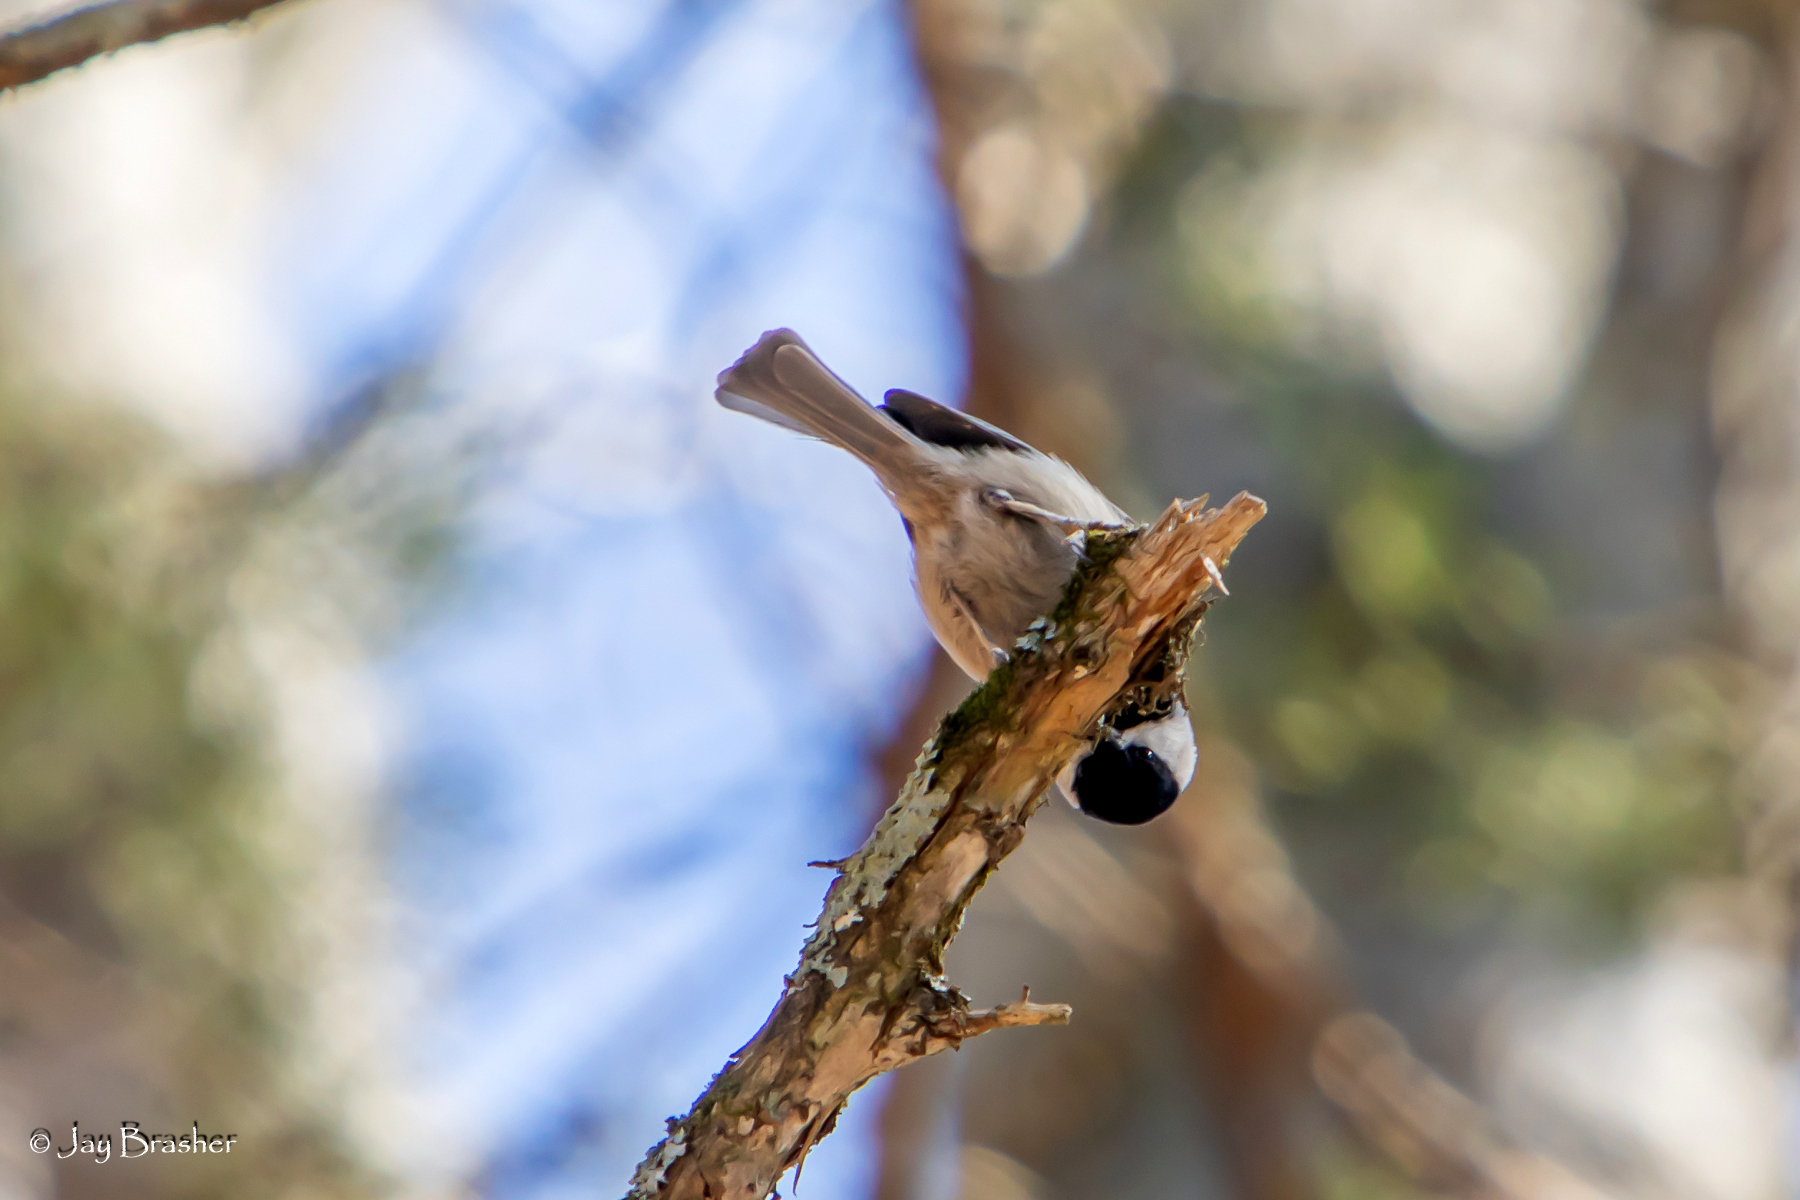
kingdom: Animalia
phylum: Chordata
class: Aves
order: Passeriformes
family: Paridae
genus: Poecile
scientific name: Poecile carolinensis
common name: Carolina chickadee
